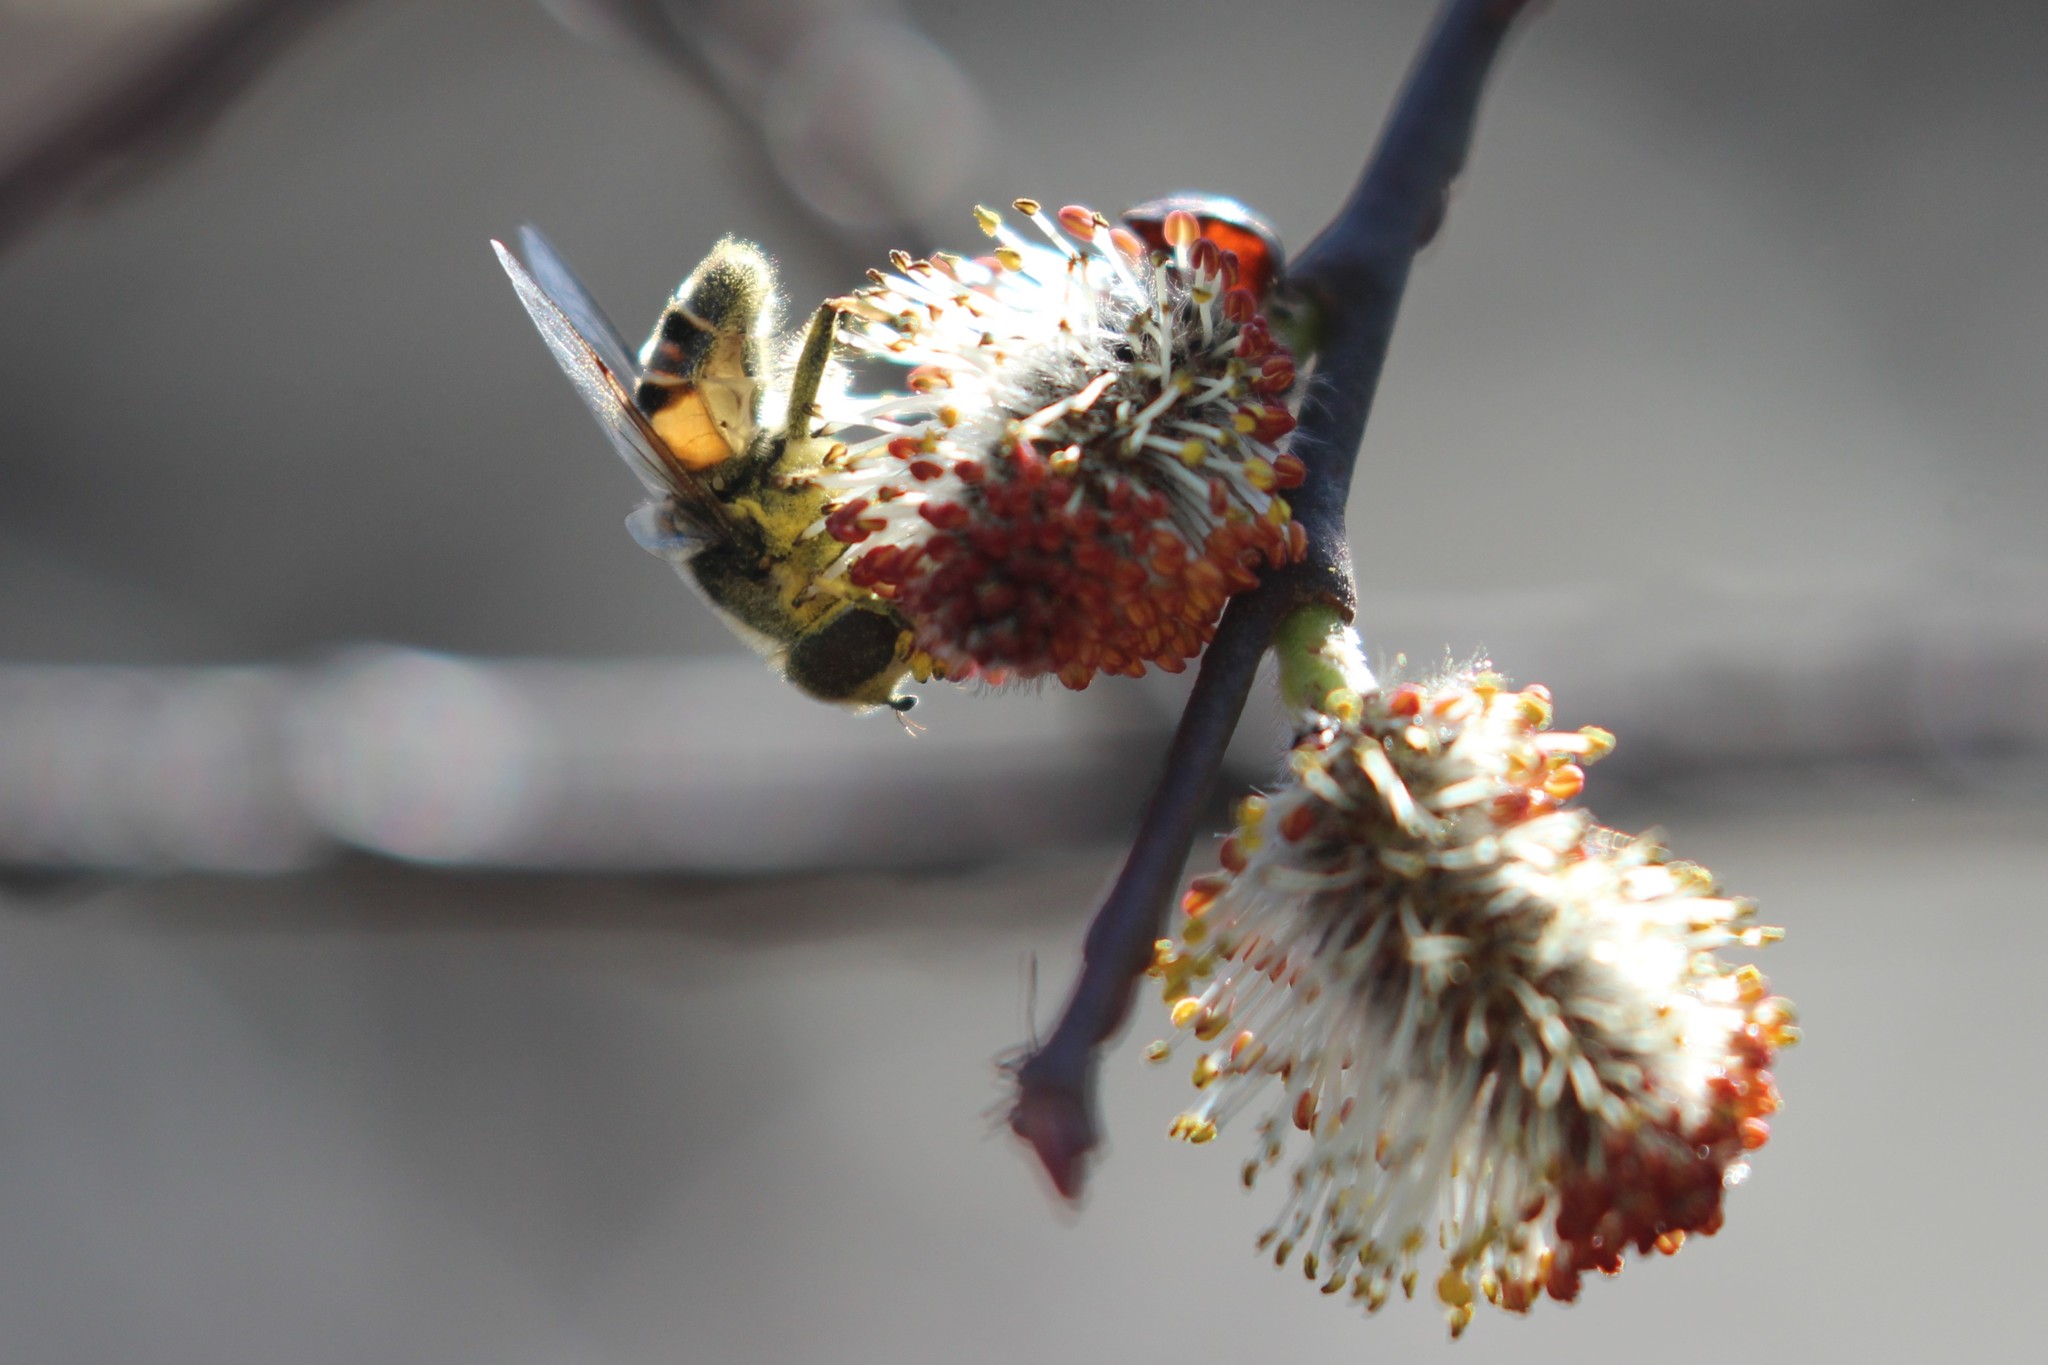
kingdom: Animalia
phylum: Arthropoda
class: Insecta
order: Diptera
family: Syrphidae
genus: Eristalis
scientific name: Eristalis dimidiata
